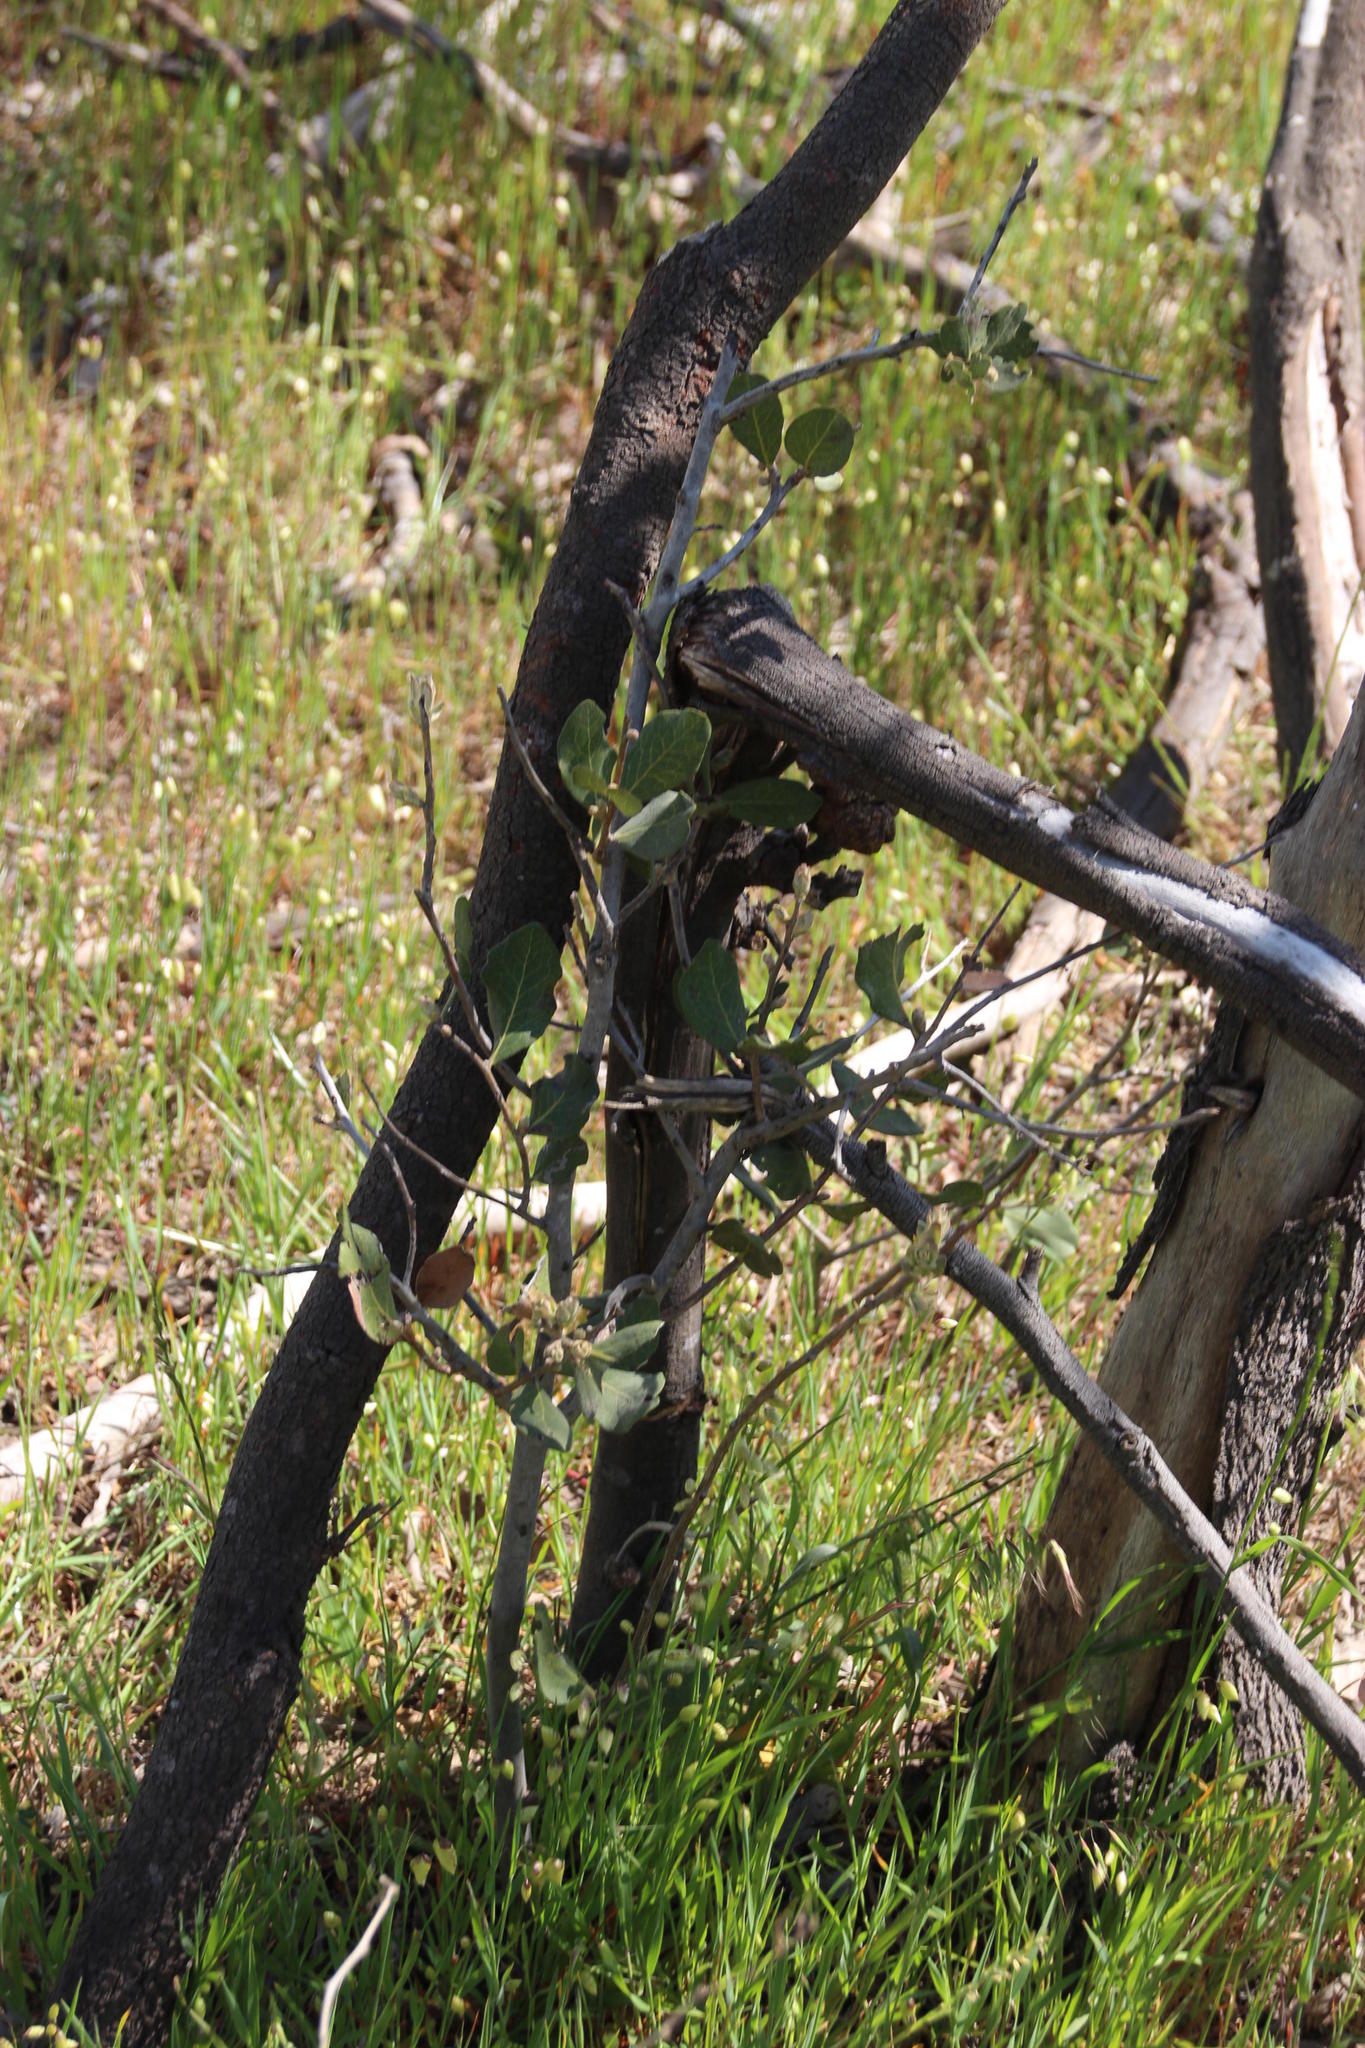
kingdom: Plantae
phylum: Tracheophyta
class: Magnoliopsida
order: Ericales
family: Ebenaceae
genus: Euclea
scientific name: Euclea tomentosa
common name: Honey guarri
